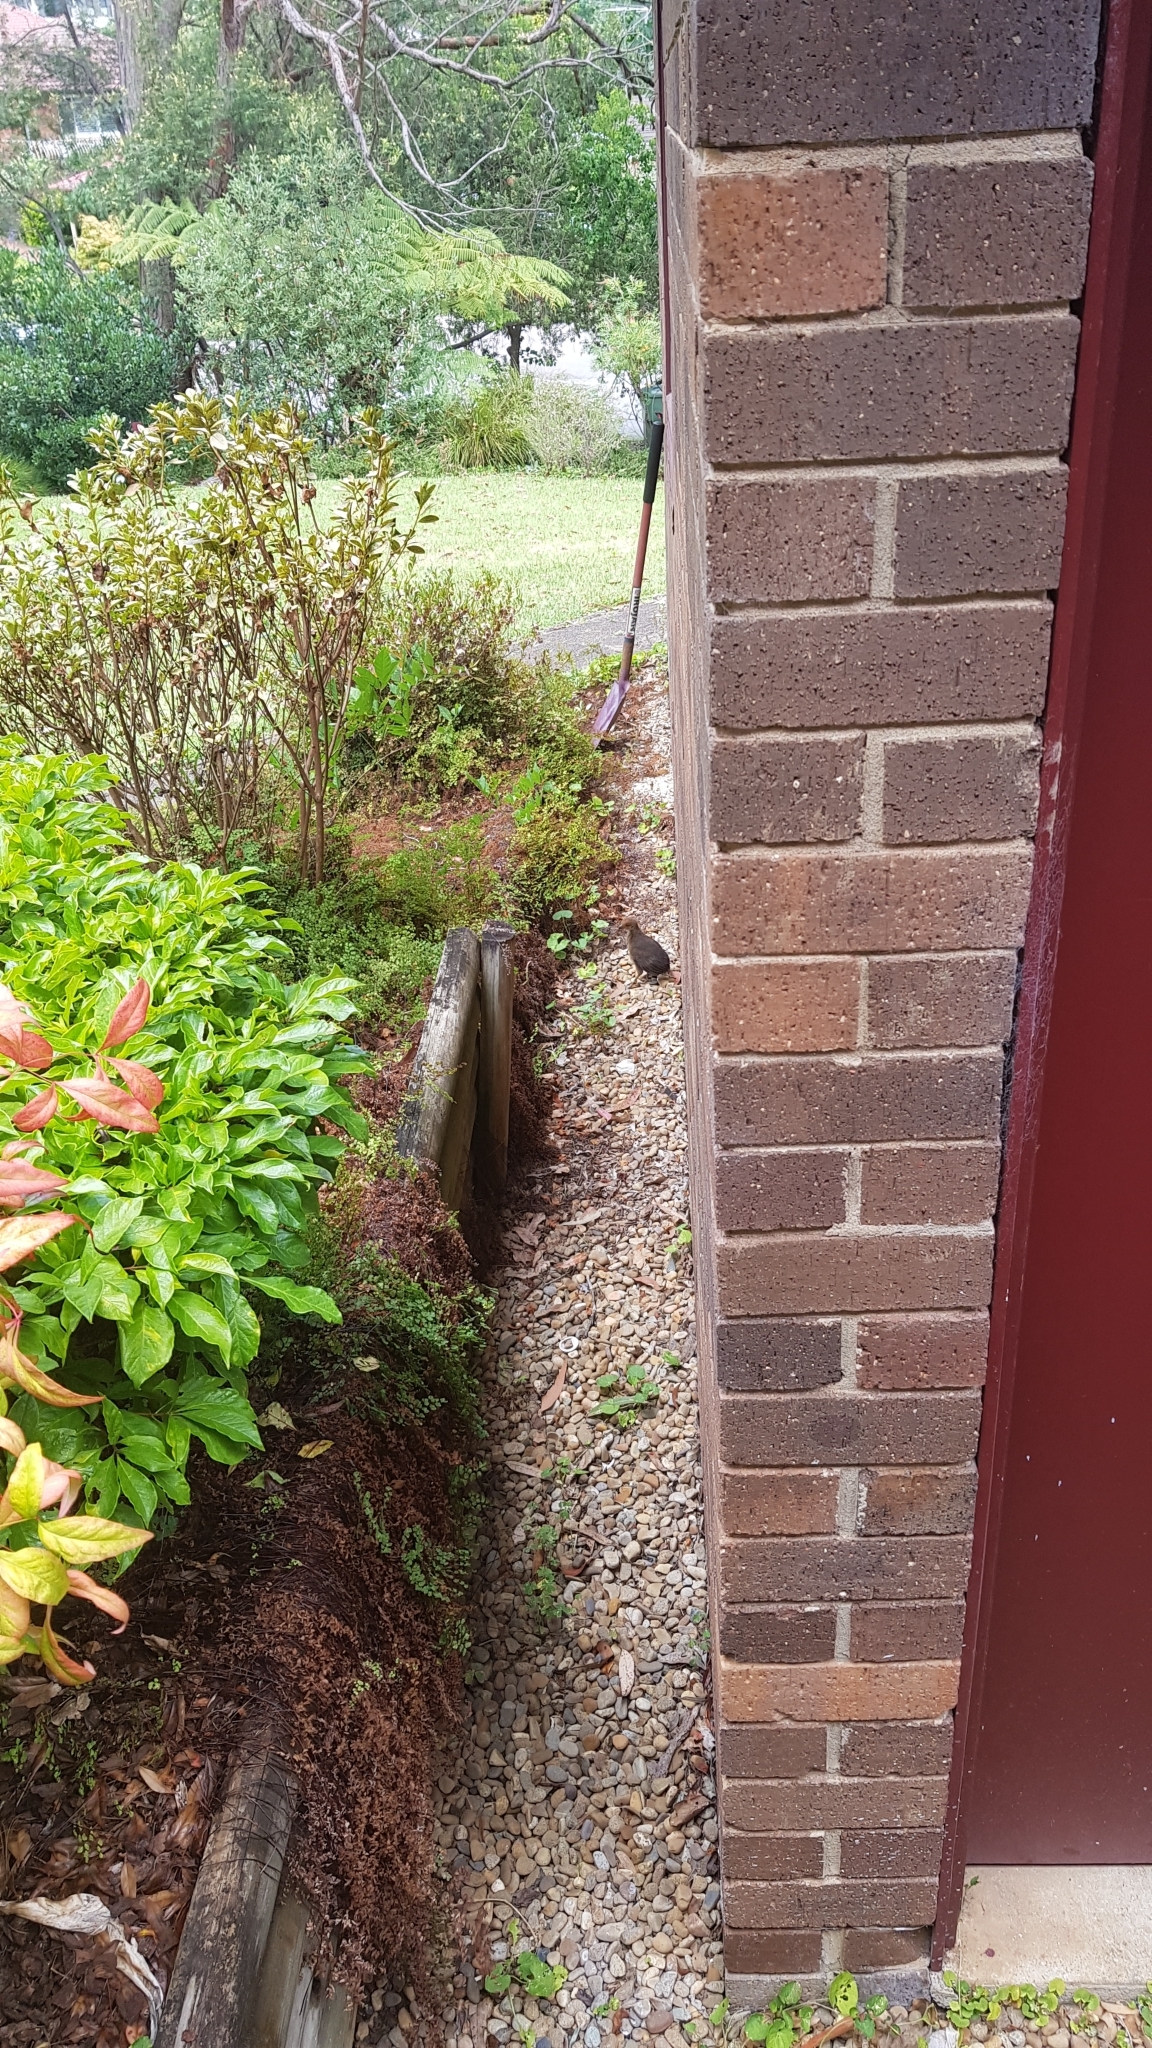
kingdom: Animalia
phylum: Chordata
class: Aves
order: Galliformes
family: Megapodiidae
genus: Alectura
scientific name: Alectura lathami
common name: Australian brushturkey
